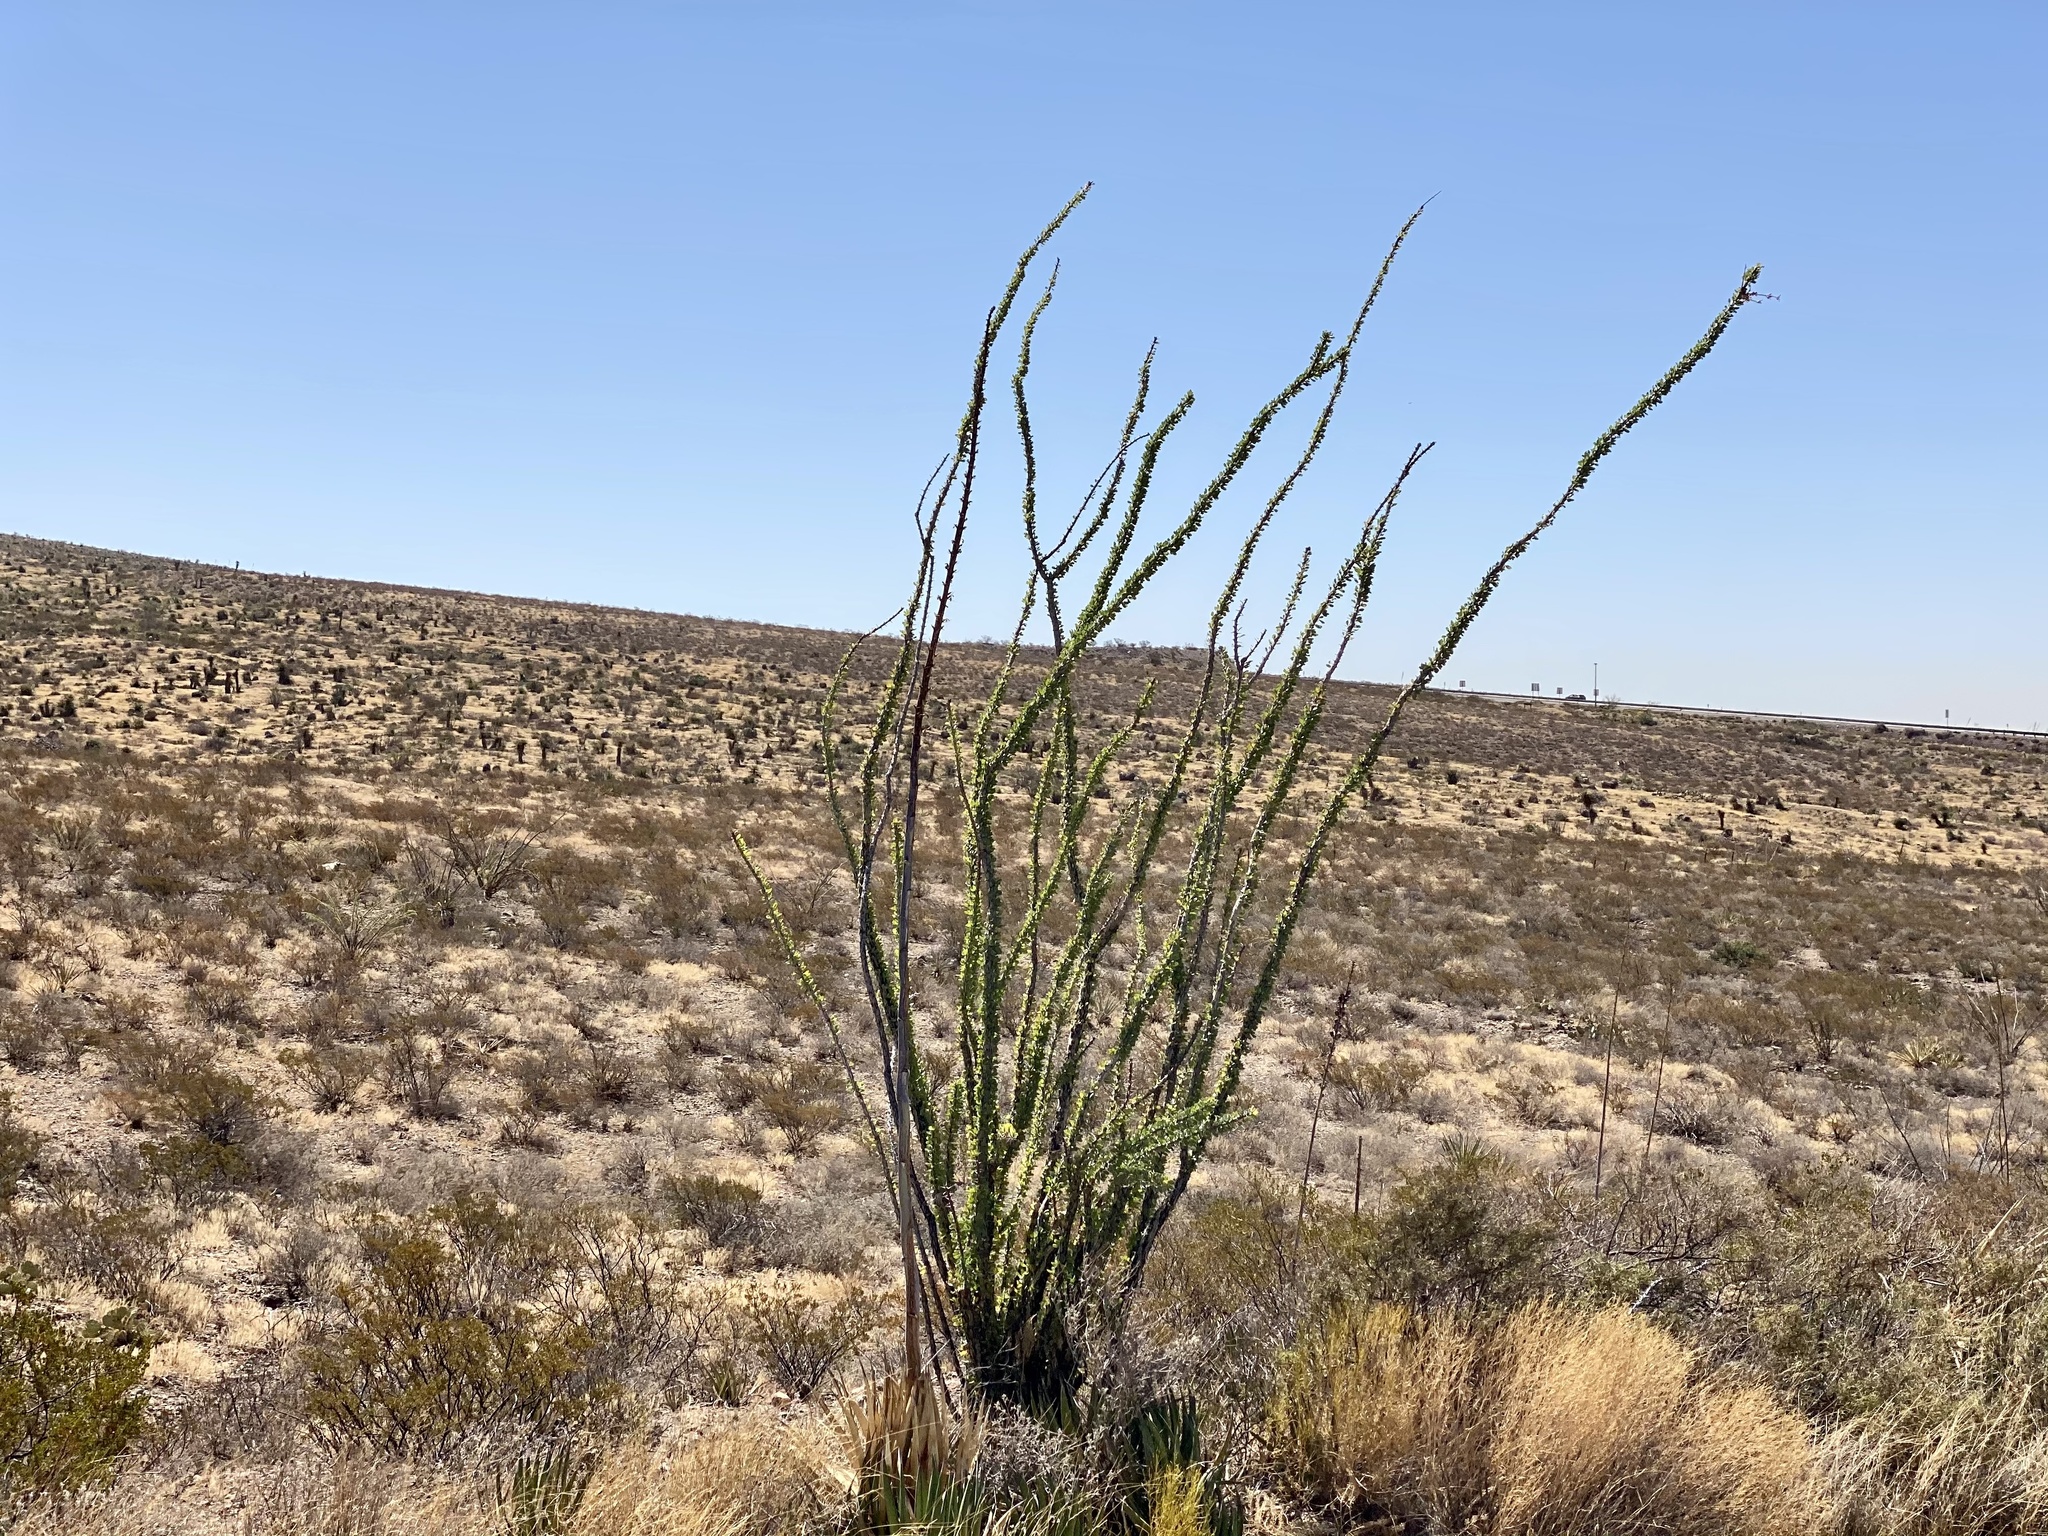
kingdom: Plantae
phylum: Tracheophyta
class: Magnoliopsida
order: Ericales
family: Fouquieriaceae
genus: Fouquieria
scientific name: Fouquieria splendens
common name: Vine-cactus
